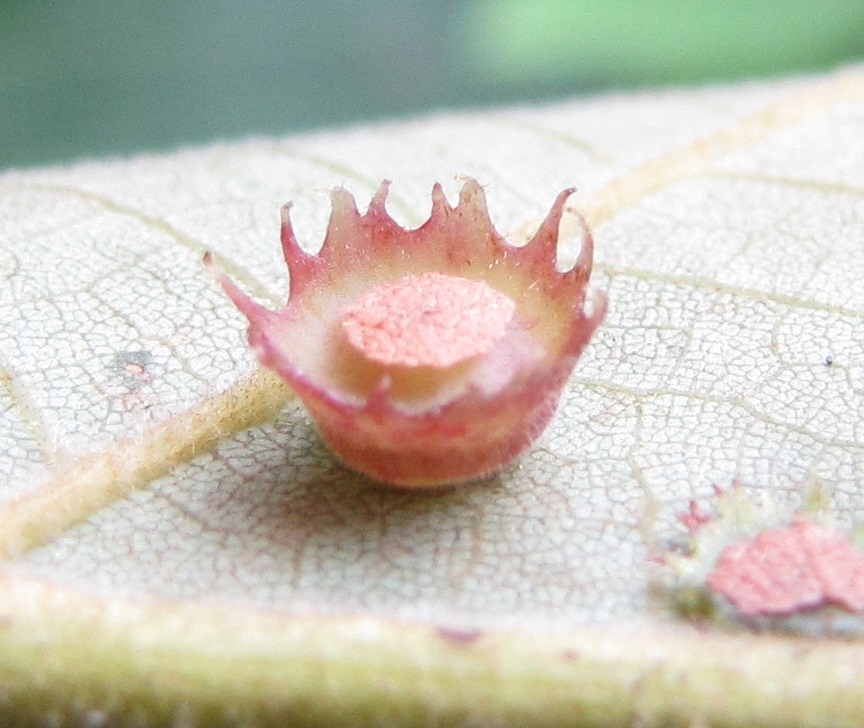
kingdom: Animalia
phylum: Arthropoda
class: Insecta
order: Diptera
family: Cecidomyiidae
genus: Caryomyia
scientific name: Caryomyia asteris
